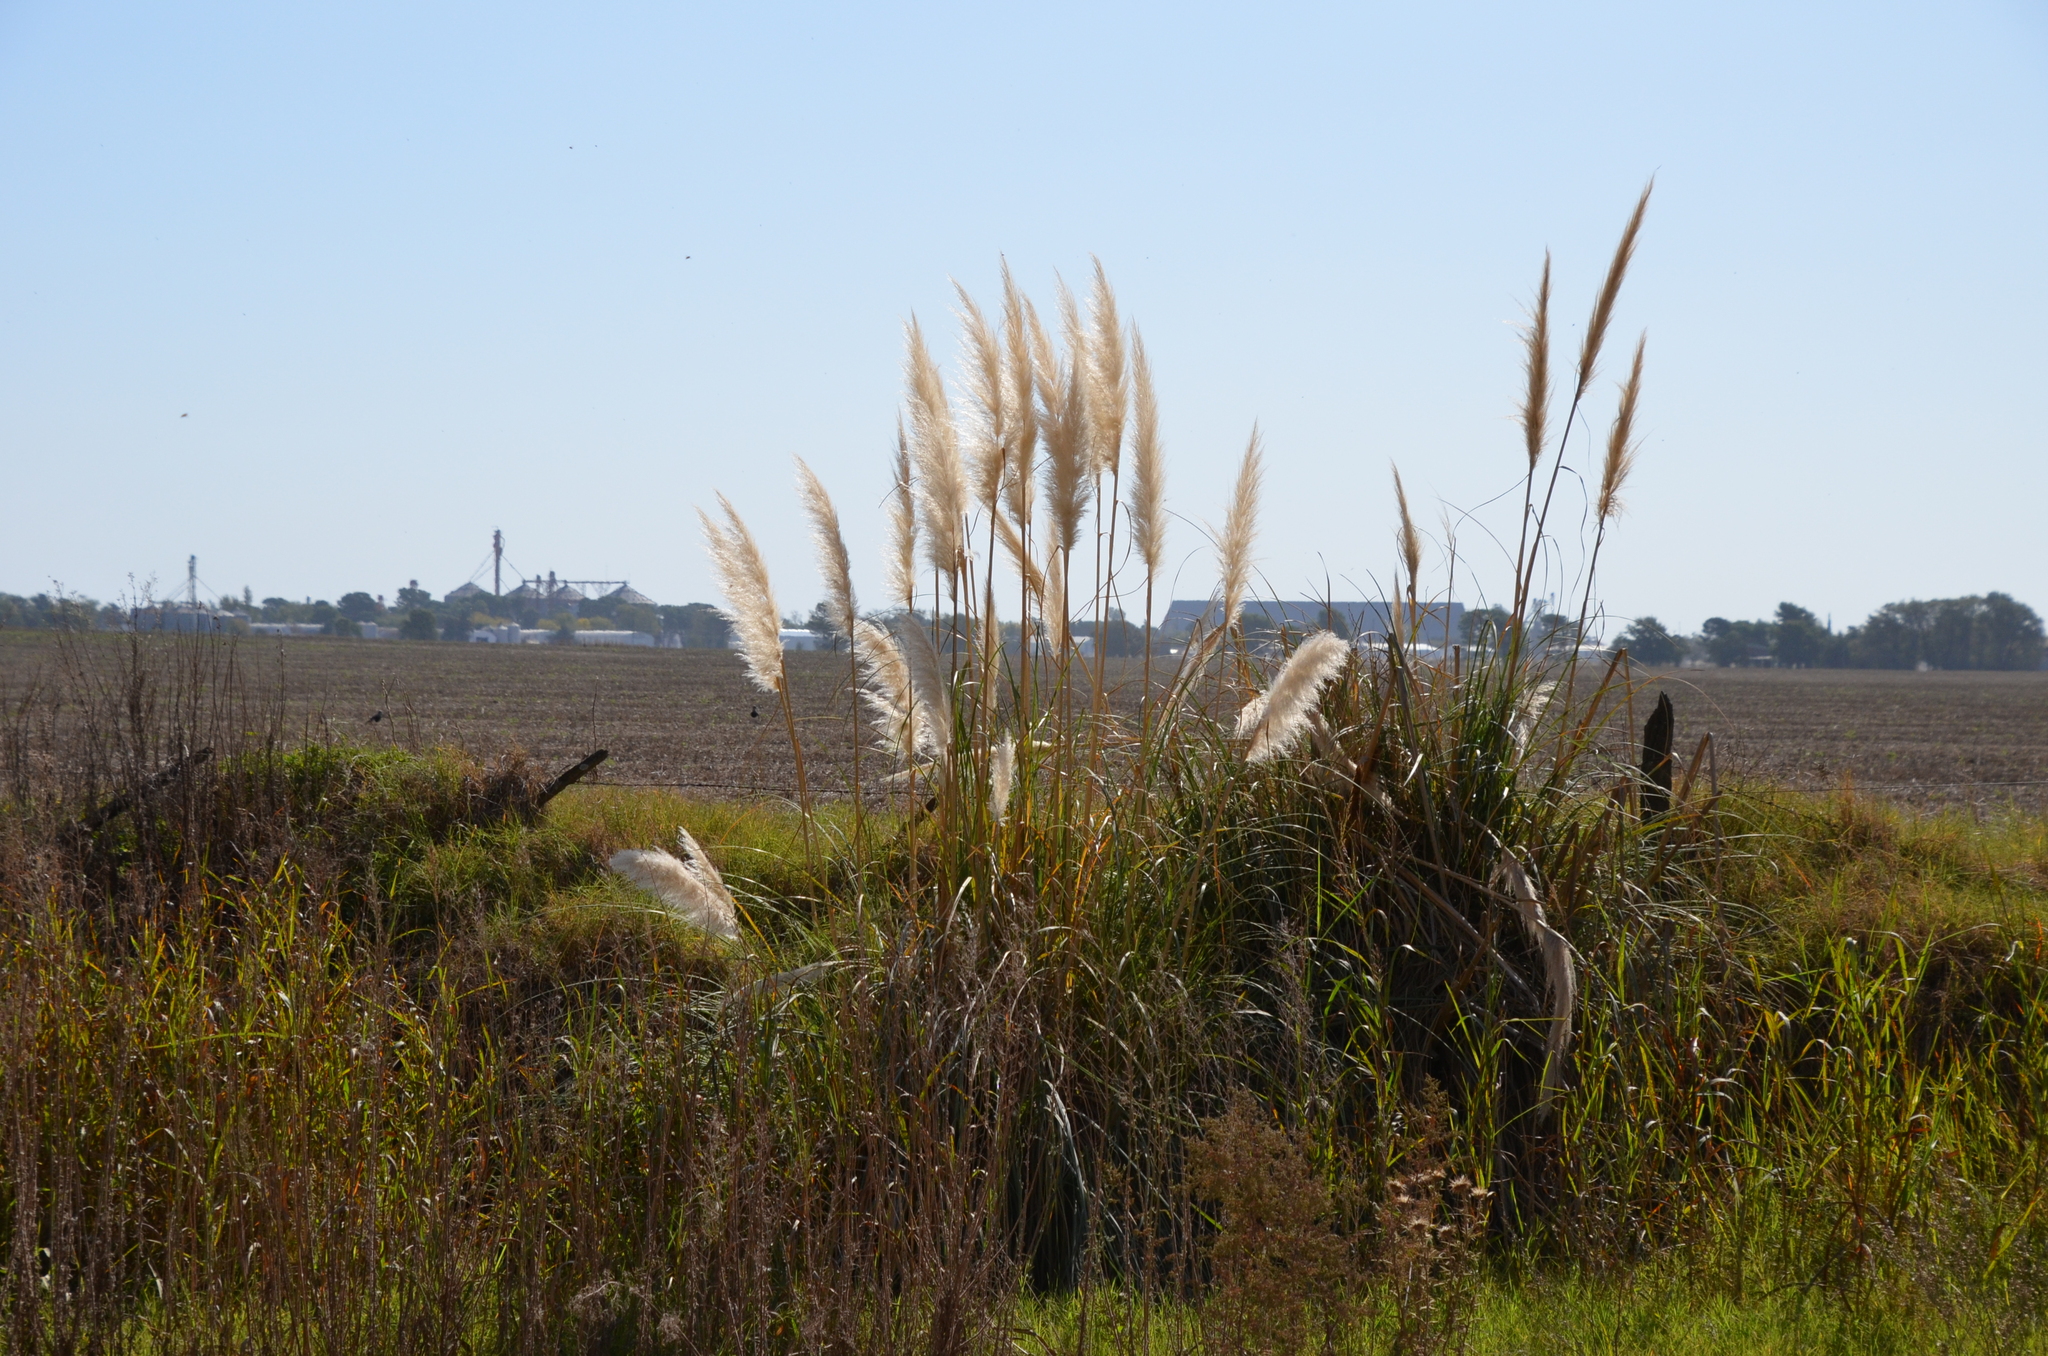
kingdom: Plantae
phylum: Tracheophyta
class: Liliopsida
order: Poales
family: Poaceae
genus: Cortaderia
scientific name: Cortaderia selloana
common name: Uruguayan pampas grass
